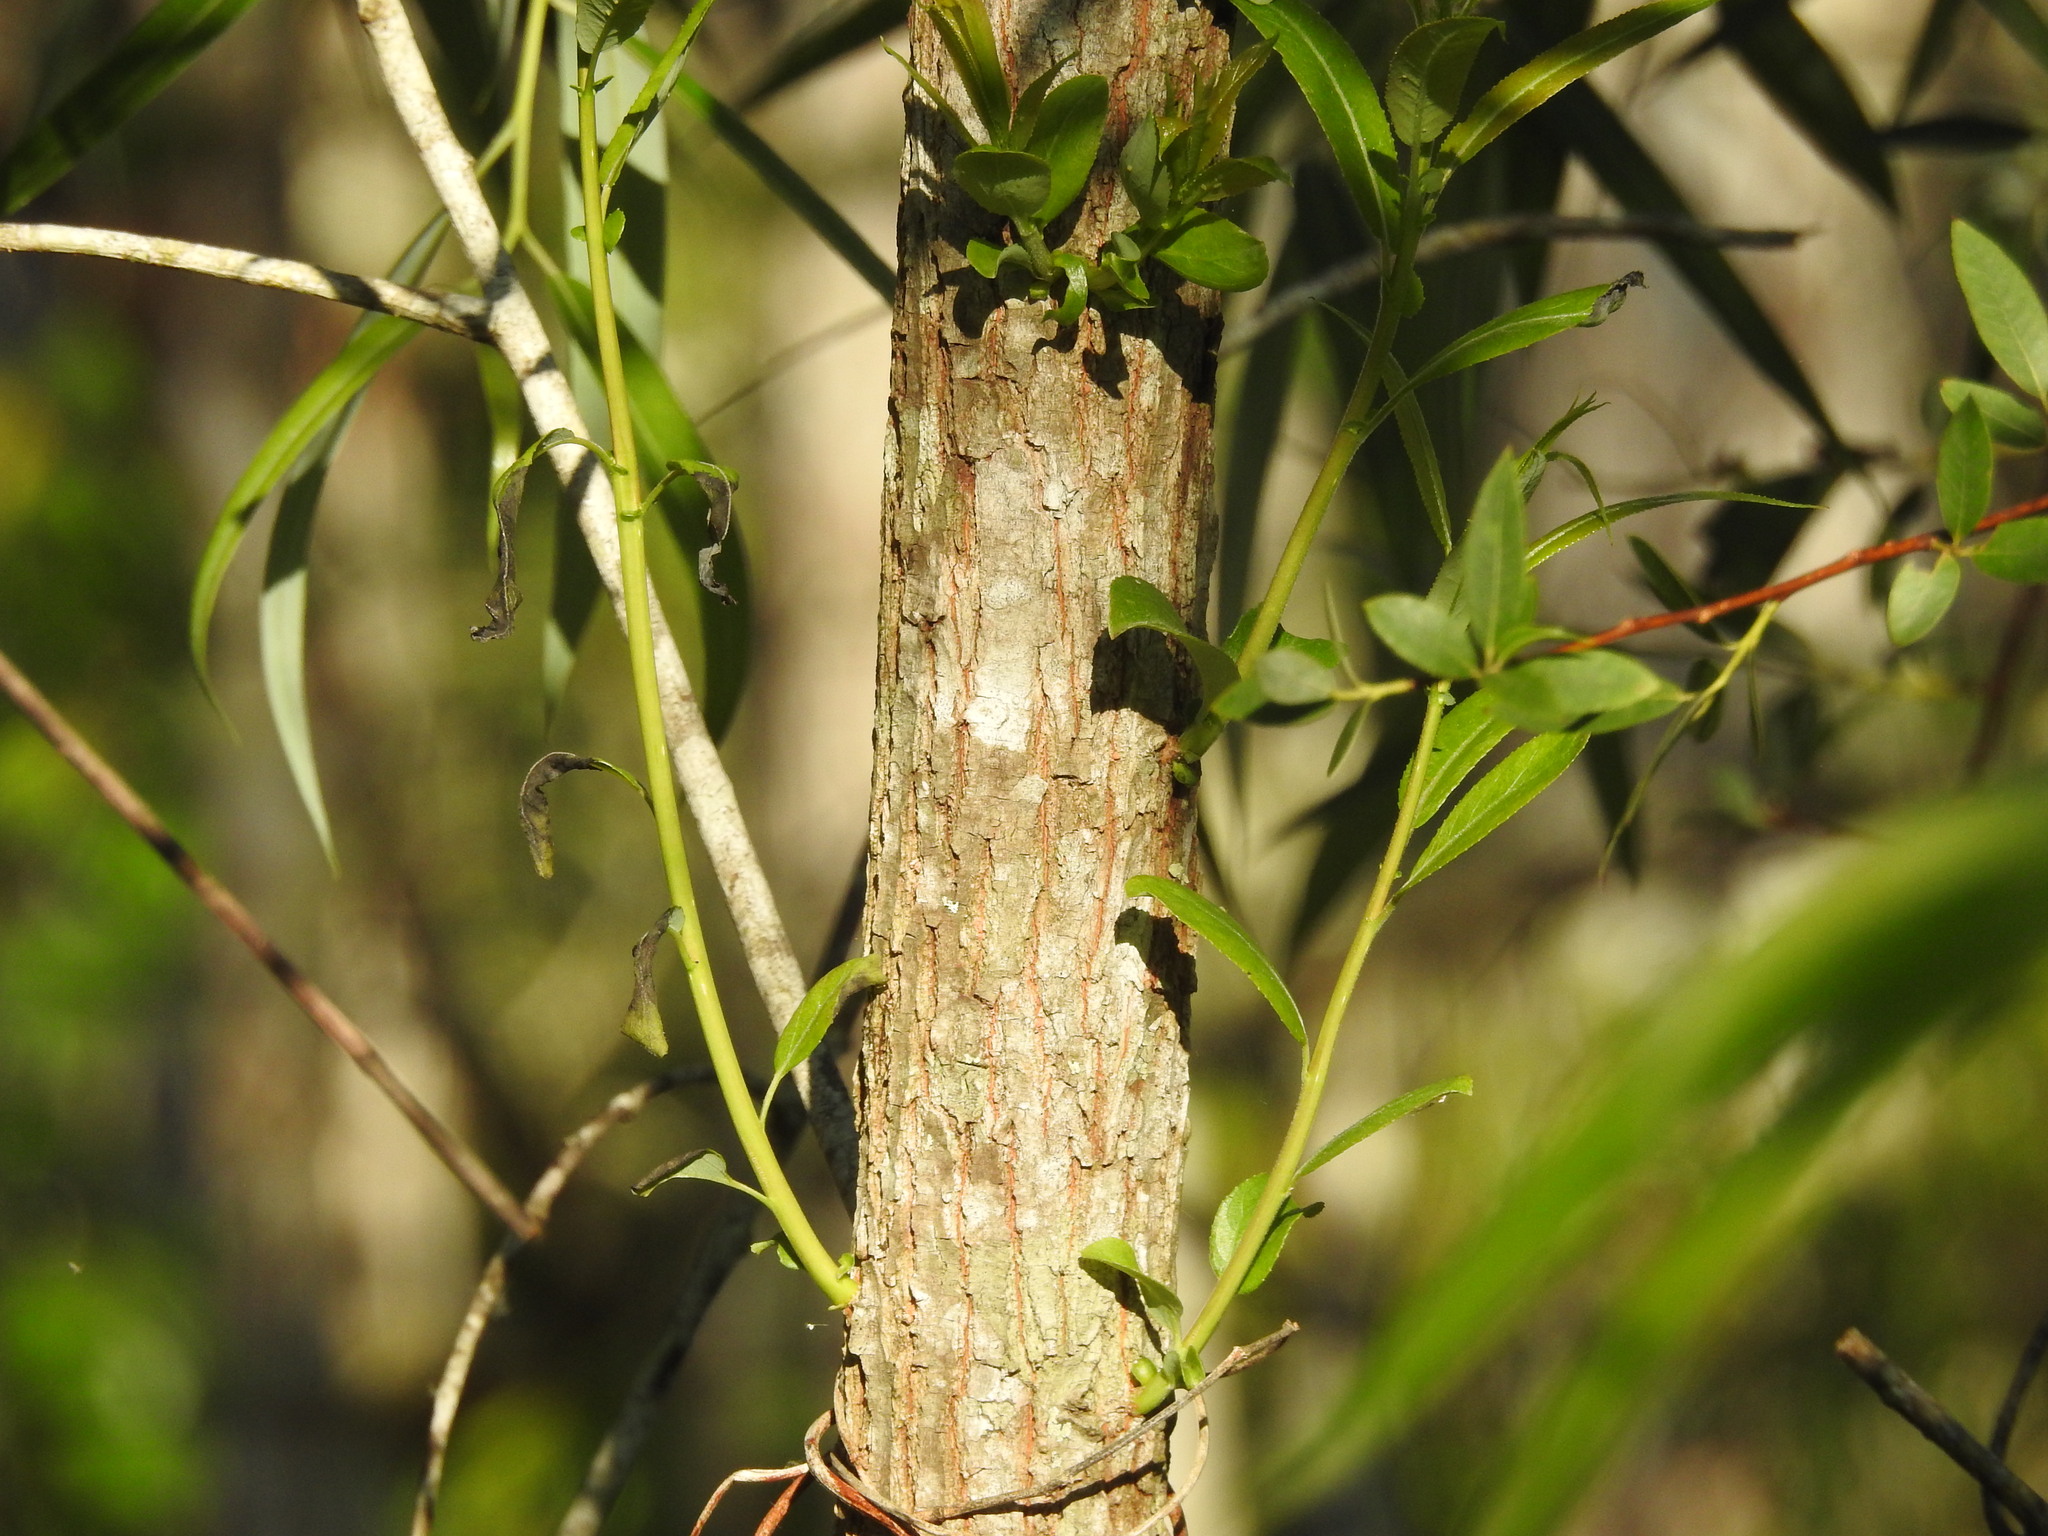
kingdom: Plantae
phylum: Tracheophyta
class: Magnoliopsida
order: Malpighiales
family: Salicaceae
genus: Salix
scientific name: Salix caroliniana
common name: Carolina willow
